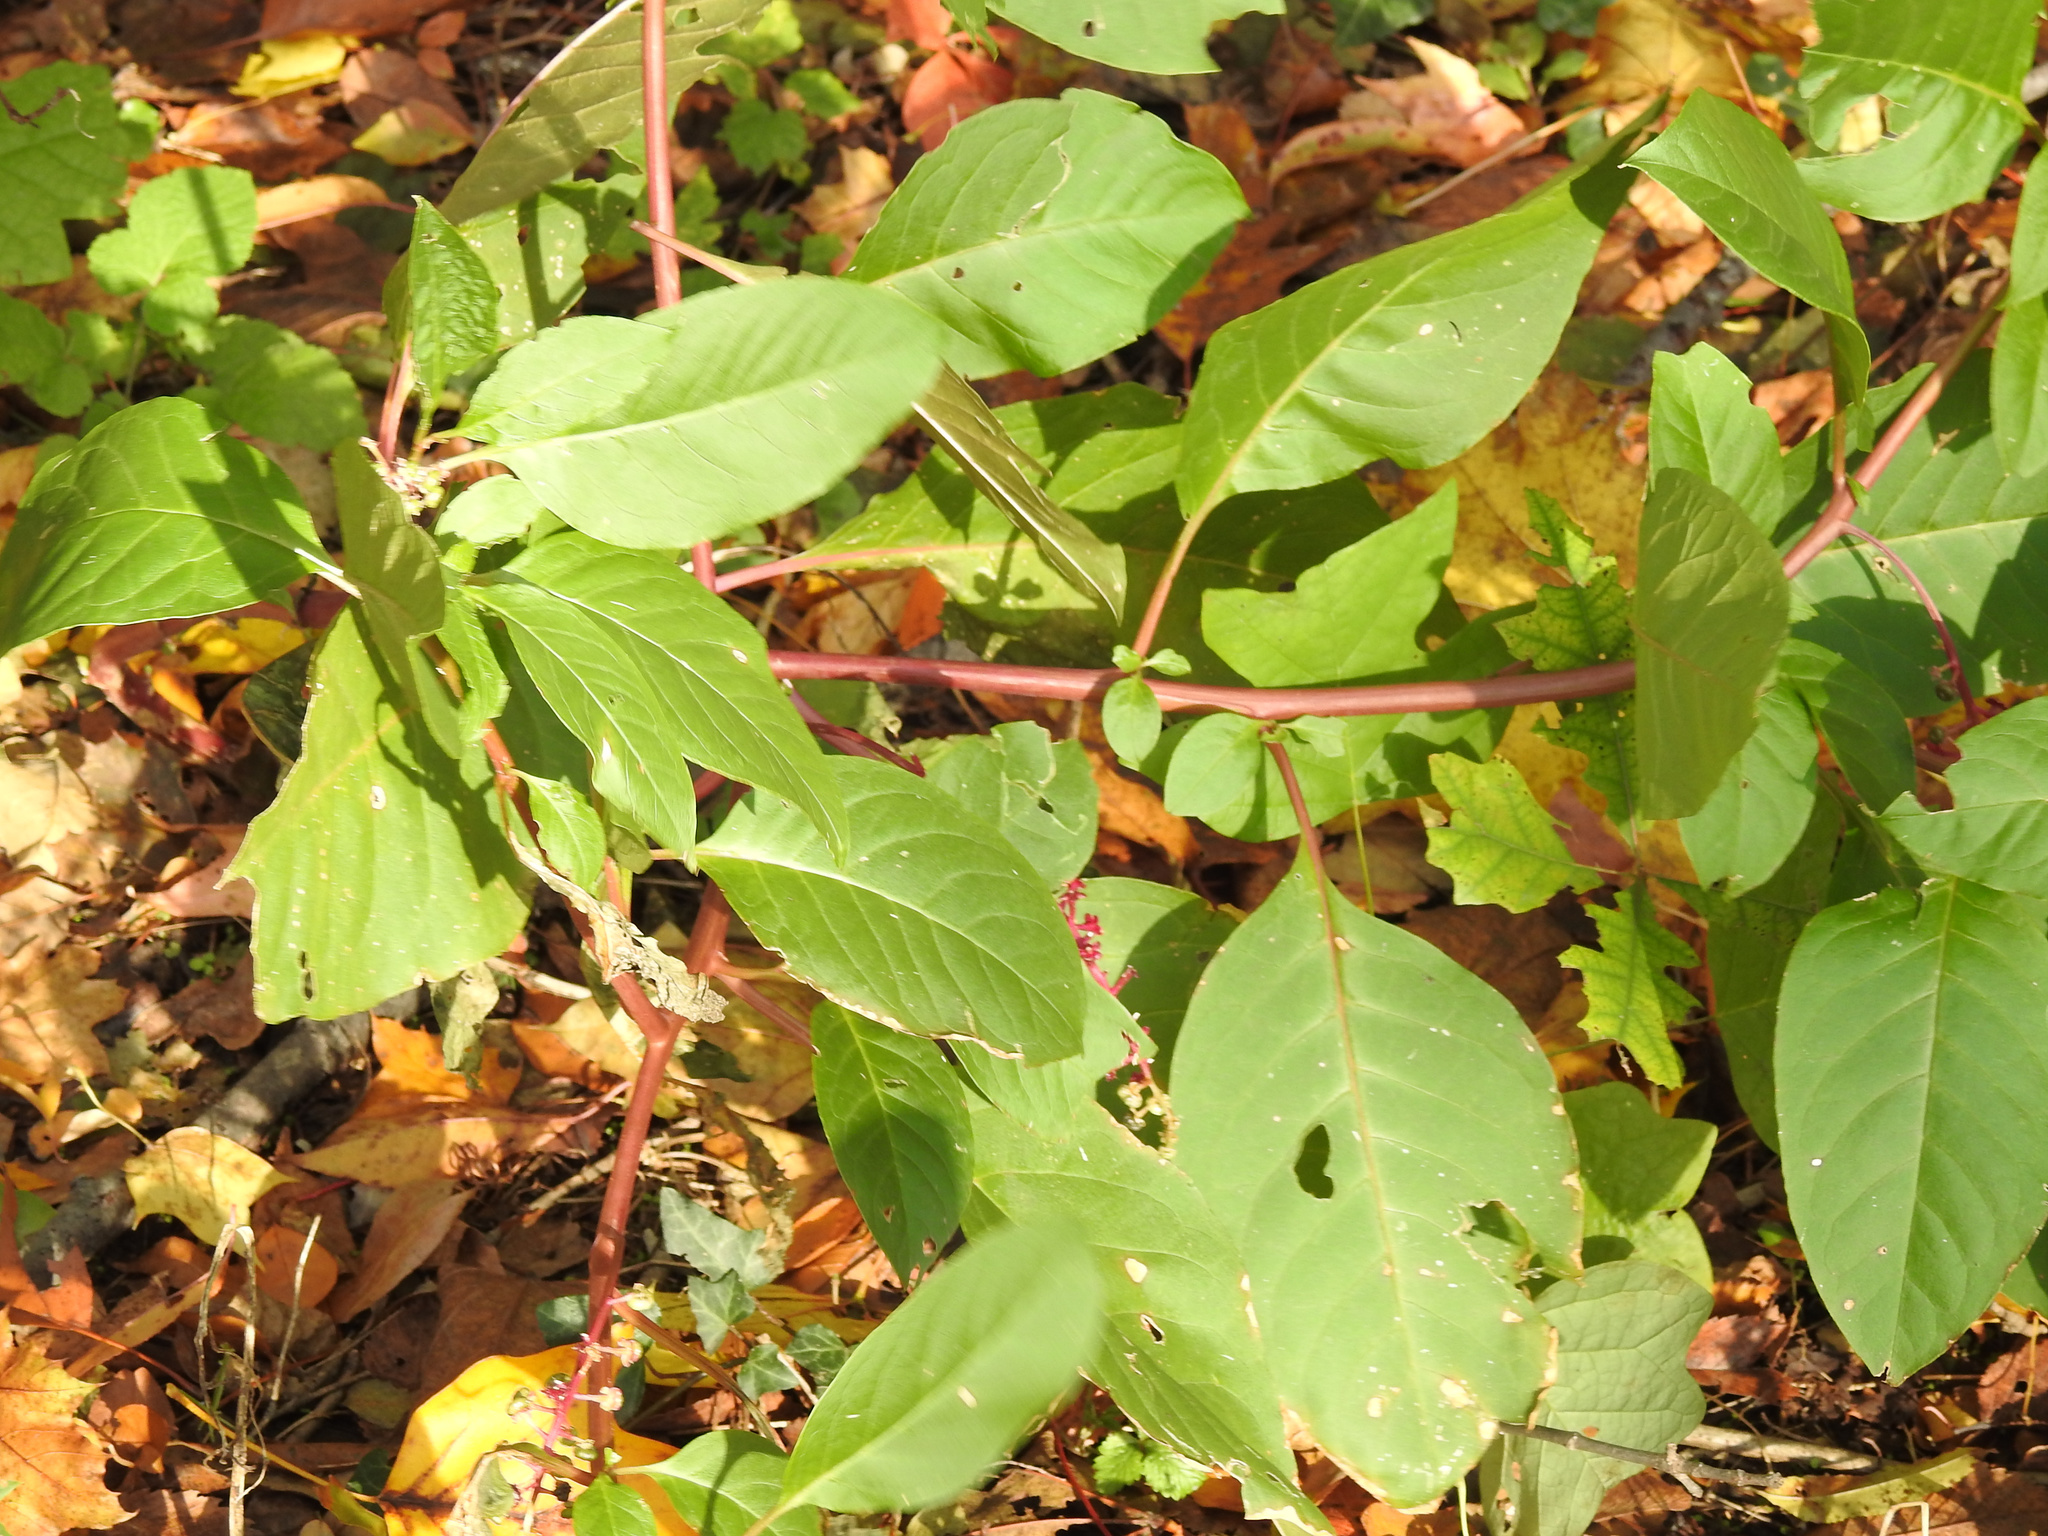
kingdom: Plantae
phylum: Tracheophyta
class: Magnoliopsida
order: Caryophyllales
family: Phytolaccaceae
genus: Phytolacca
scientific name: Phytolacca americana
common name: American pokeweed
